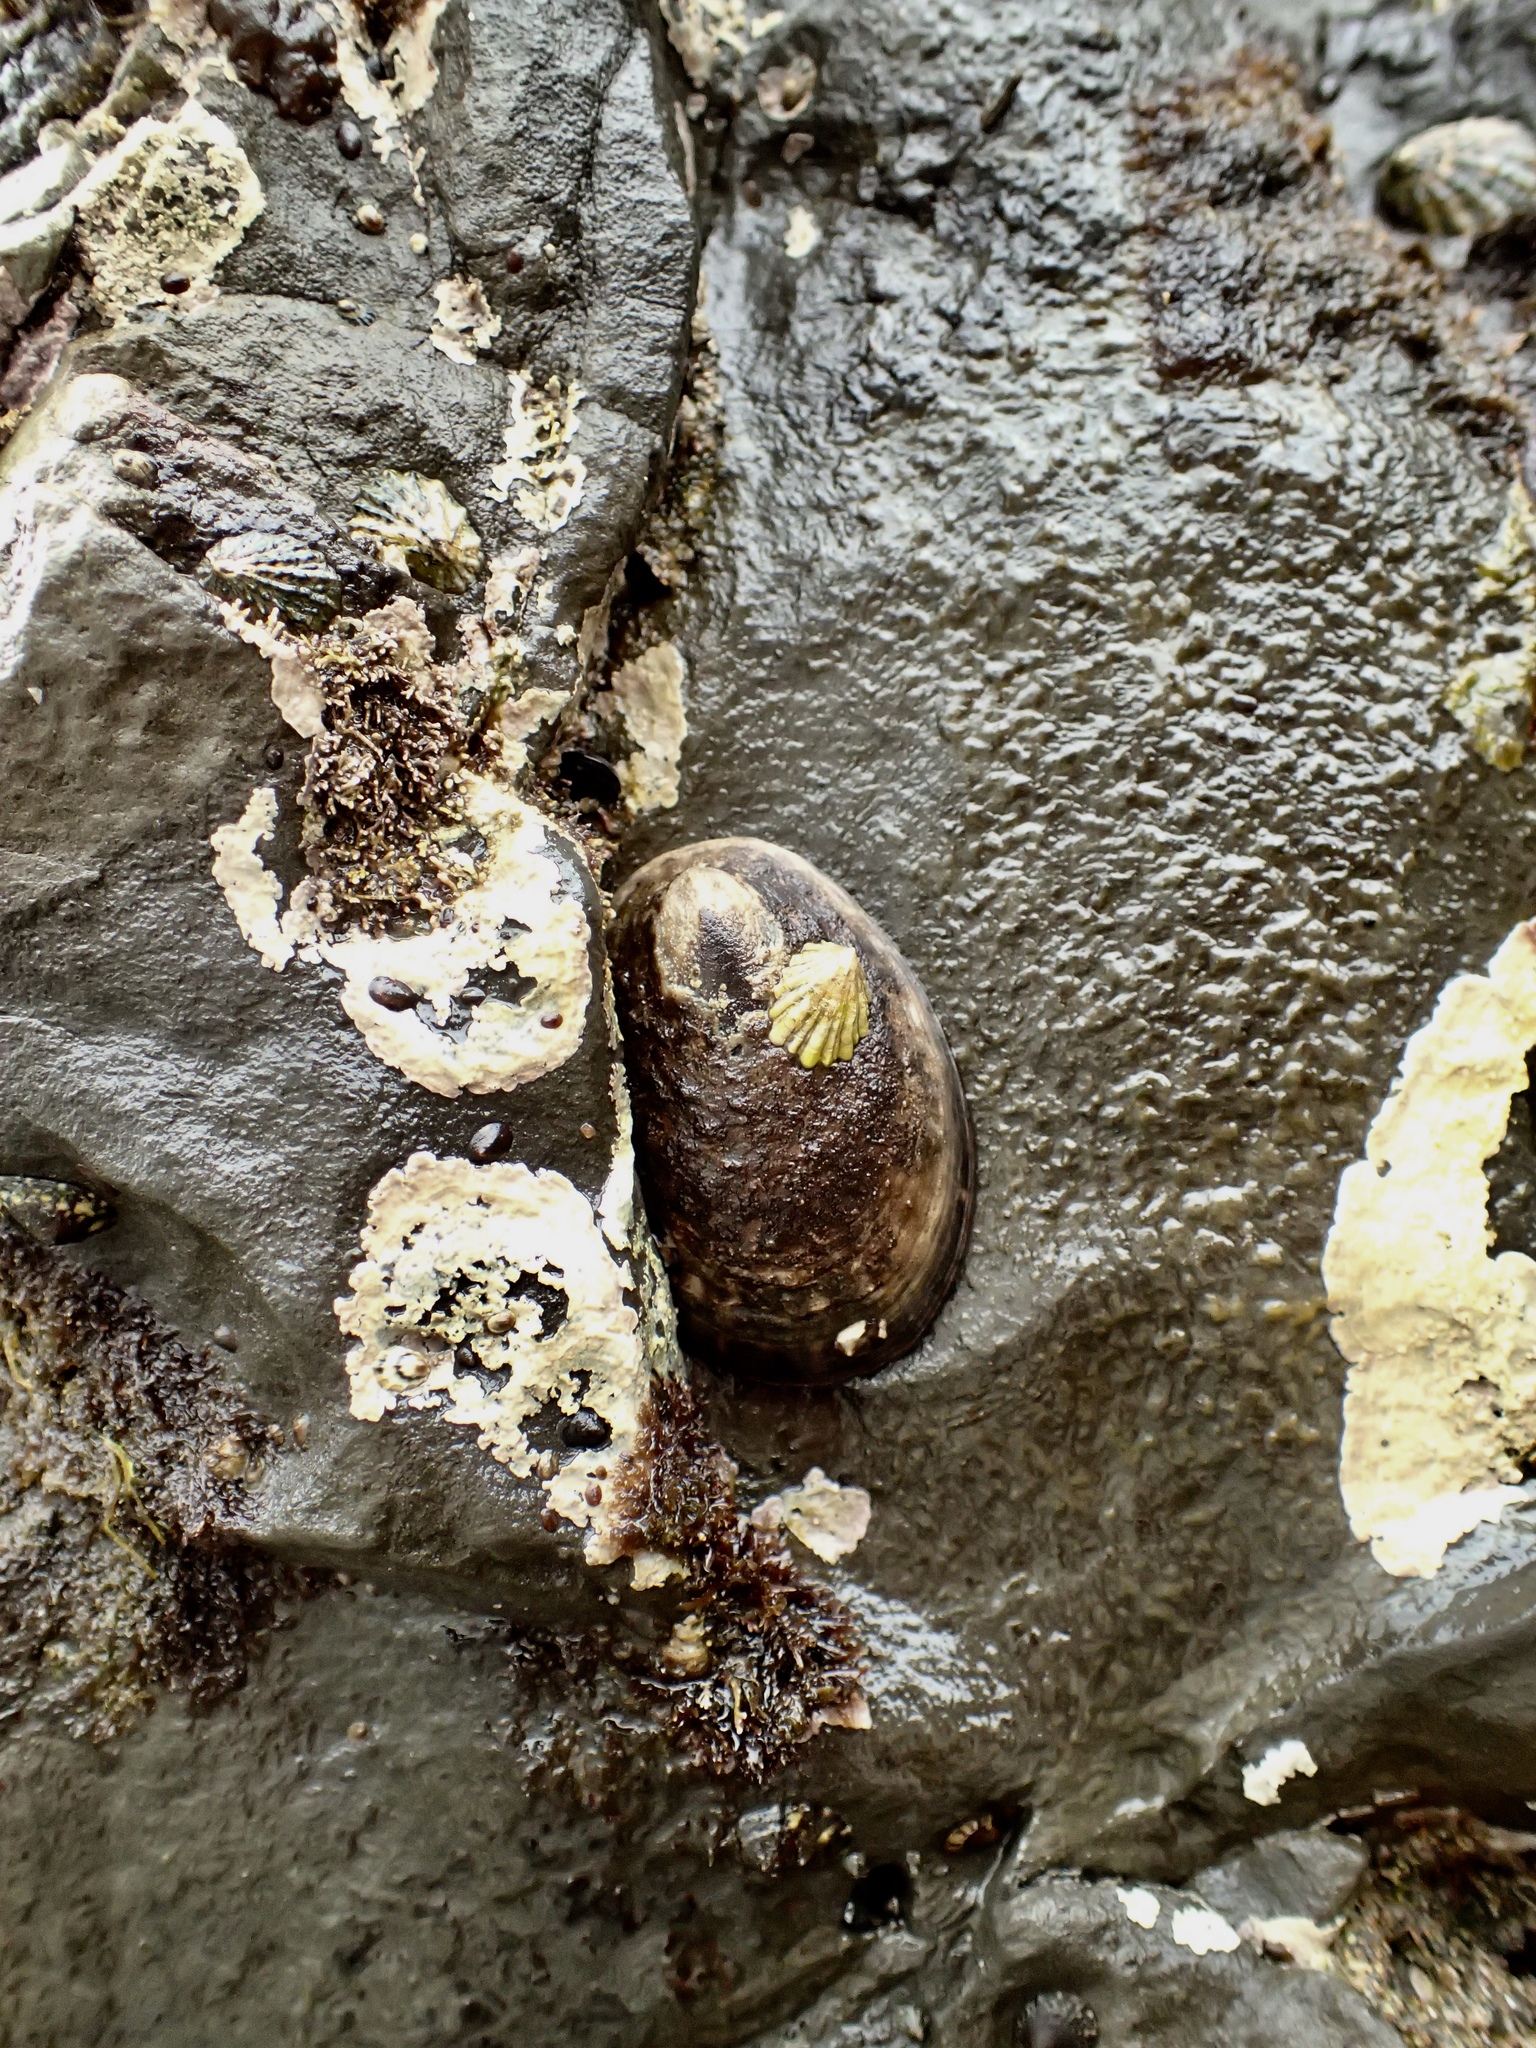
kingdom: Animalia
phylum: Mollusca
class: Gastropoda
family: Lottiidae
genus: Lottia
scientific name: Lottia gigantea
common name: Owl limpet
